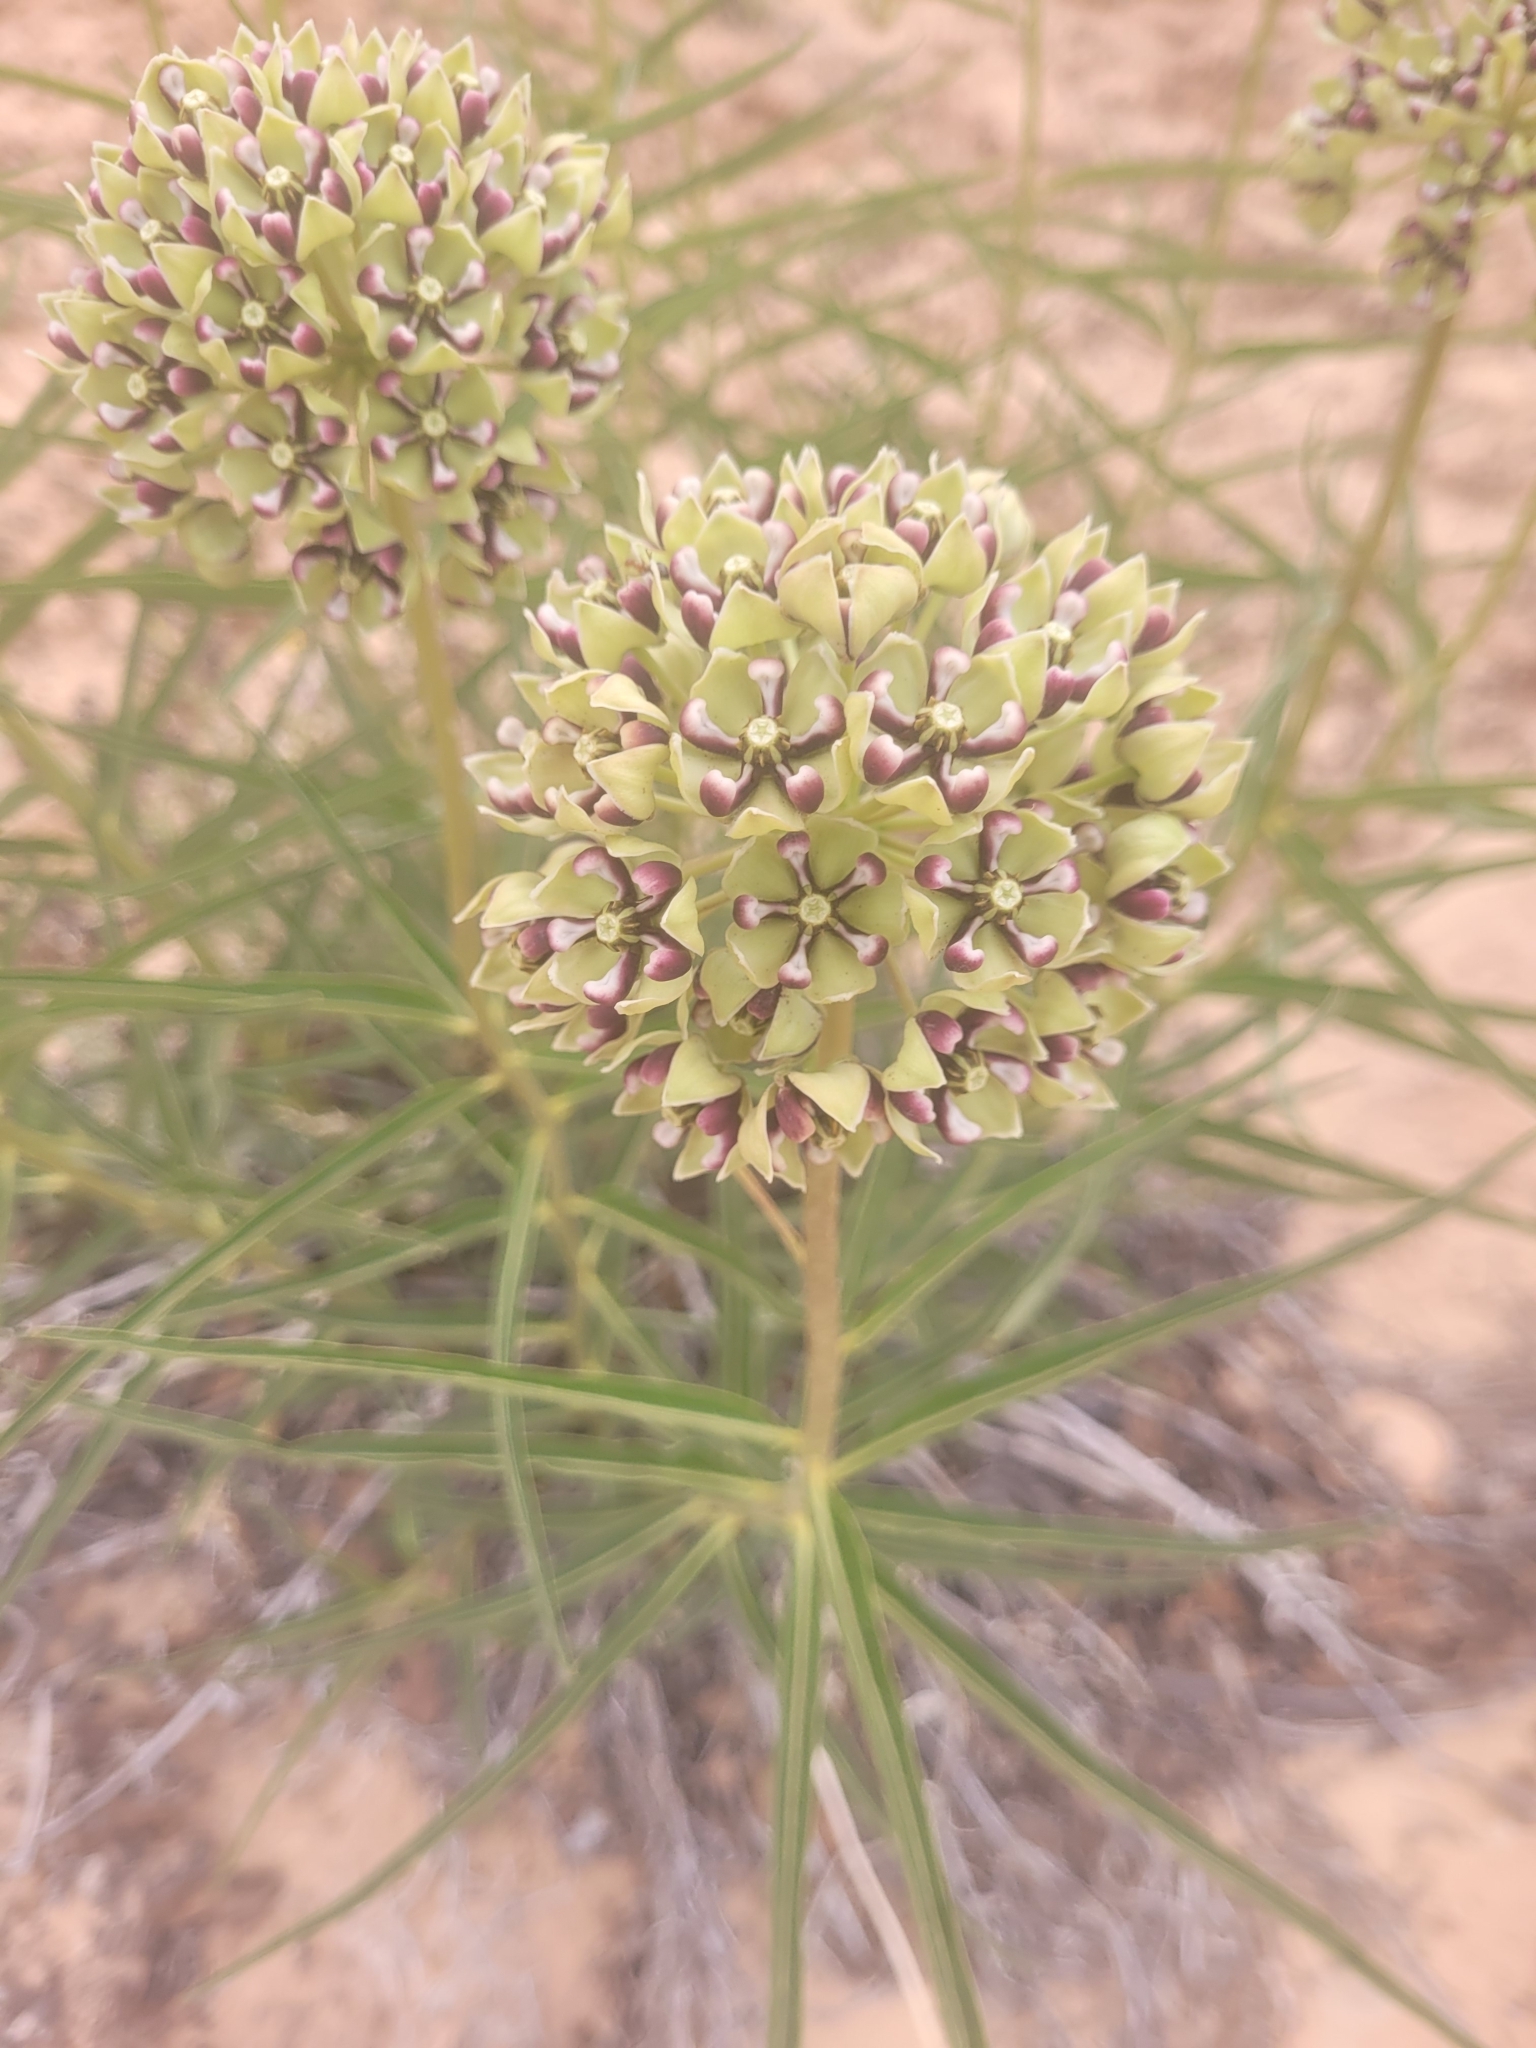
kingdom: Plantae
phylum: Tracheophyta
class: Magnoliopsida
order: Gentianales
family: Apocynaceae
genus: Asclepias
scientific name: Asclepias asperula
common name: Antelope horns
